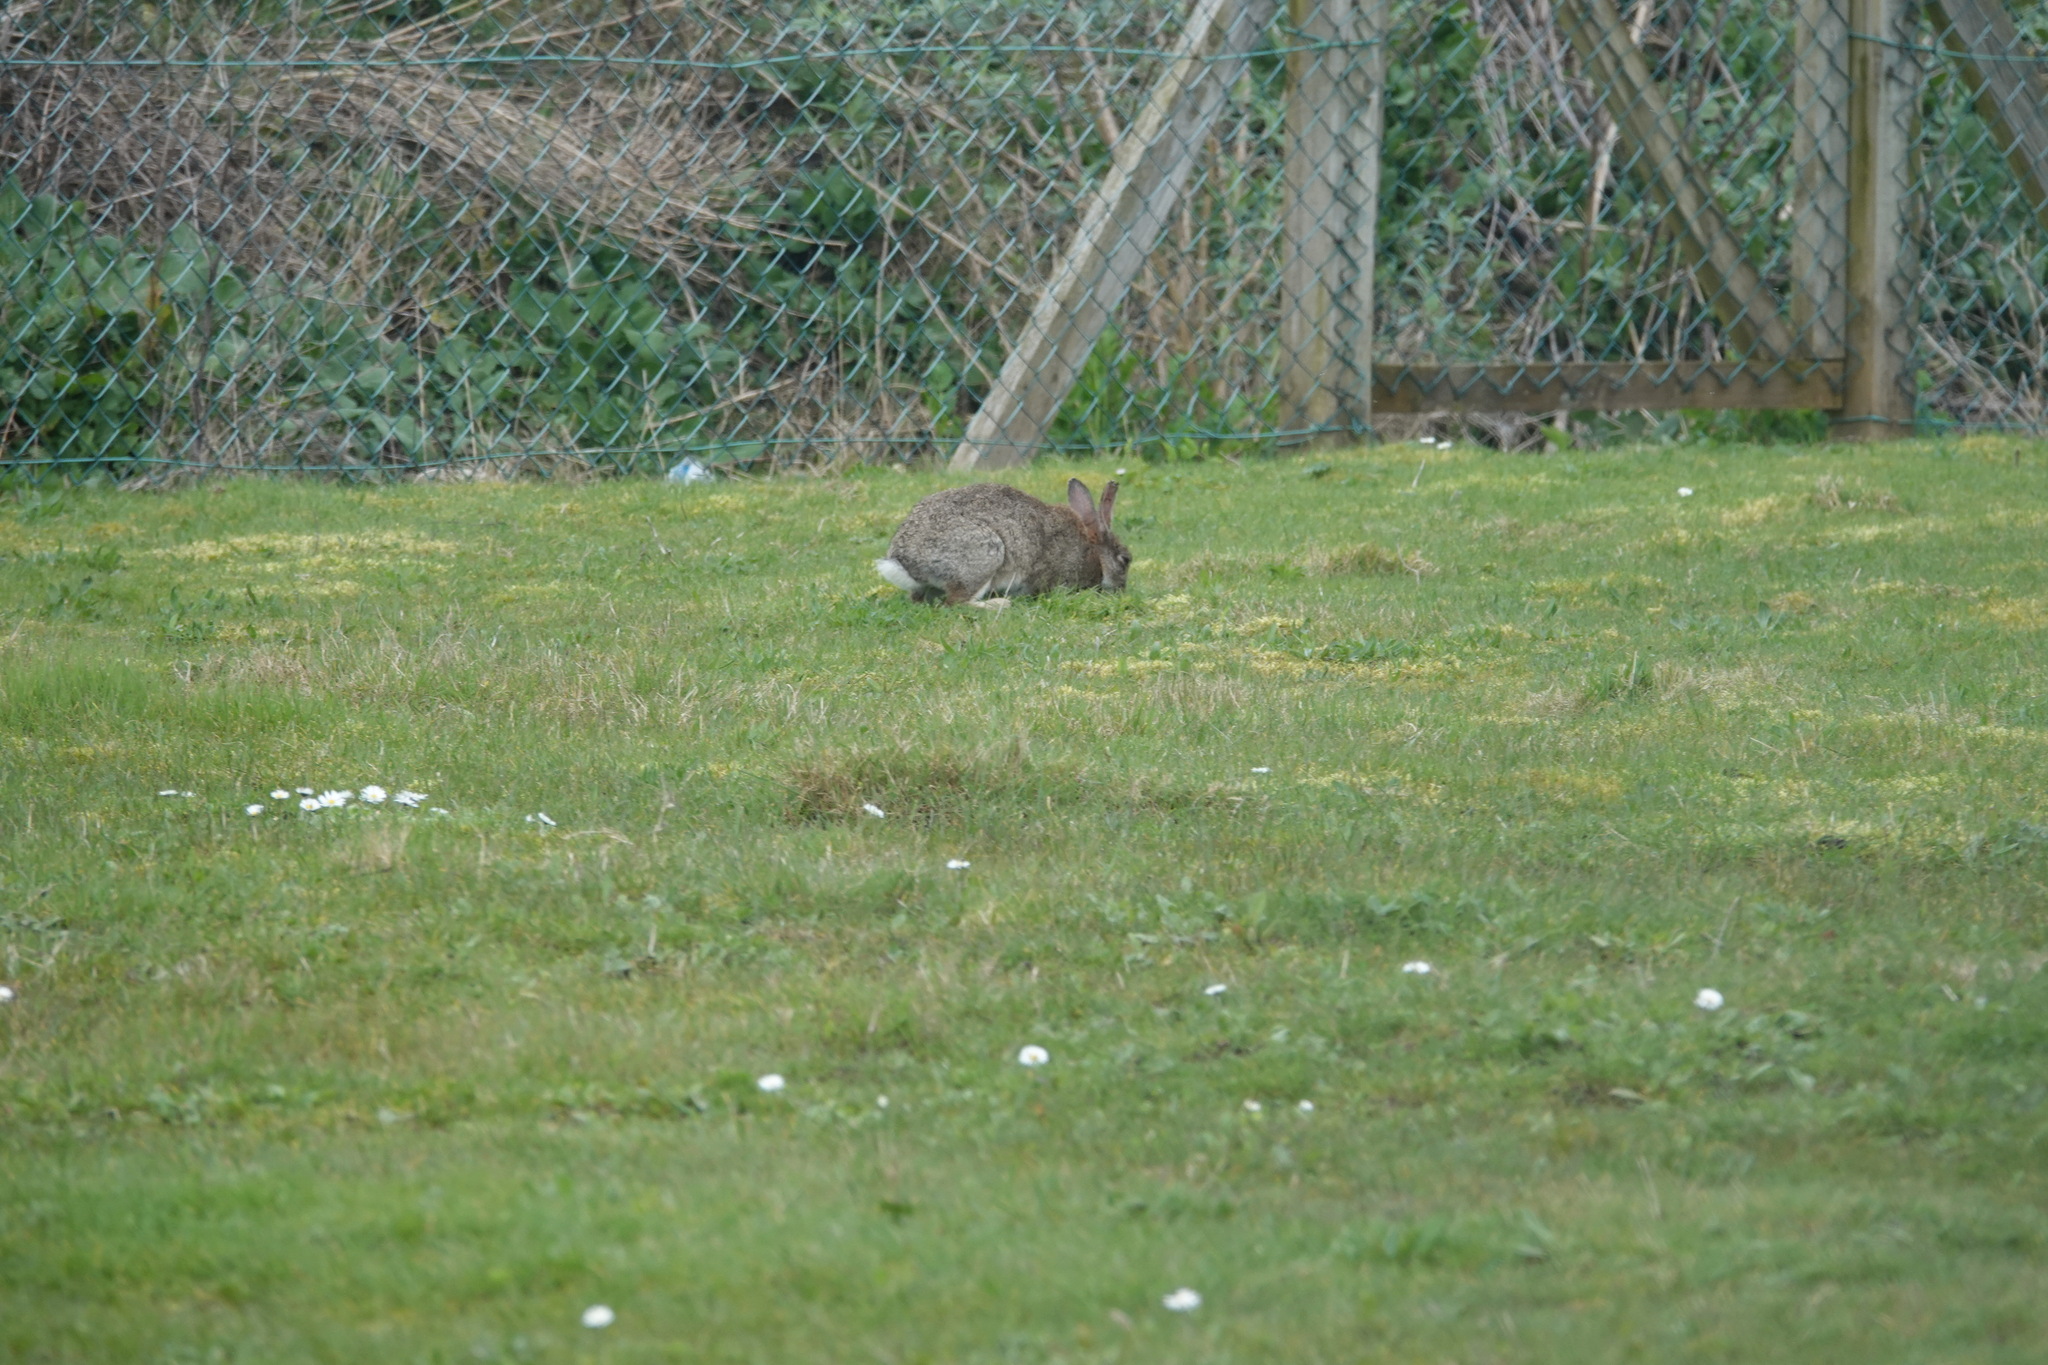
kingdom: Animalia
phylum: Chordata
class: Mammalia
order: Lagomorpha
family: Leporidae
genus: Oryctolagus
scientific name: Oryctolagus cuniculus
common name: European rabbit
